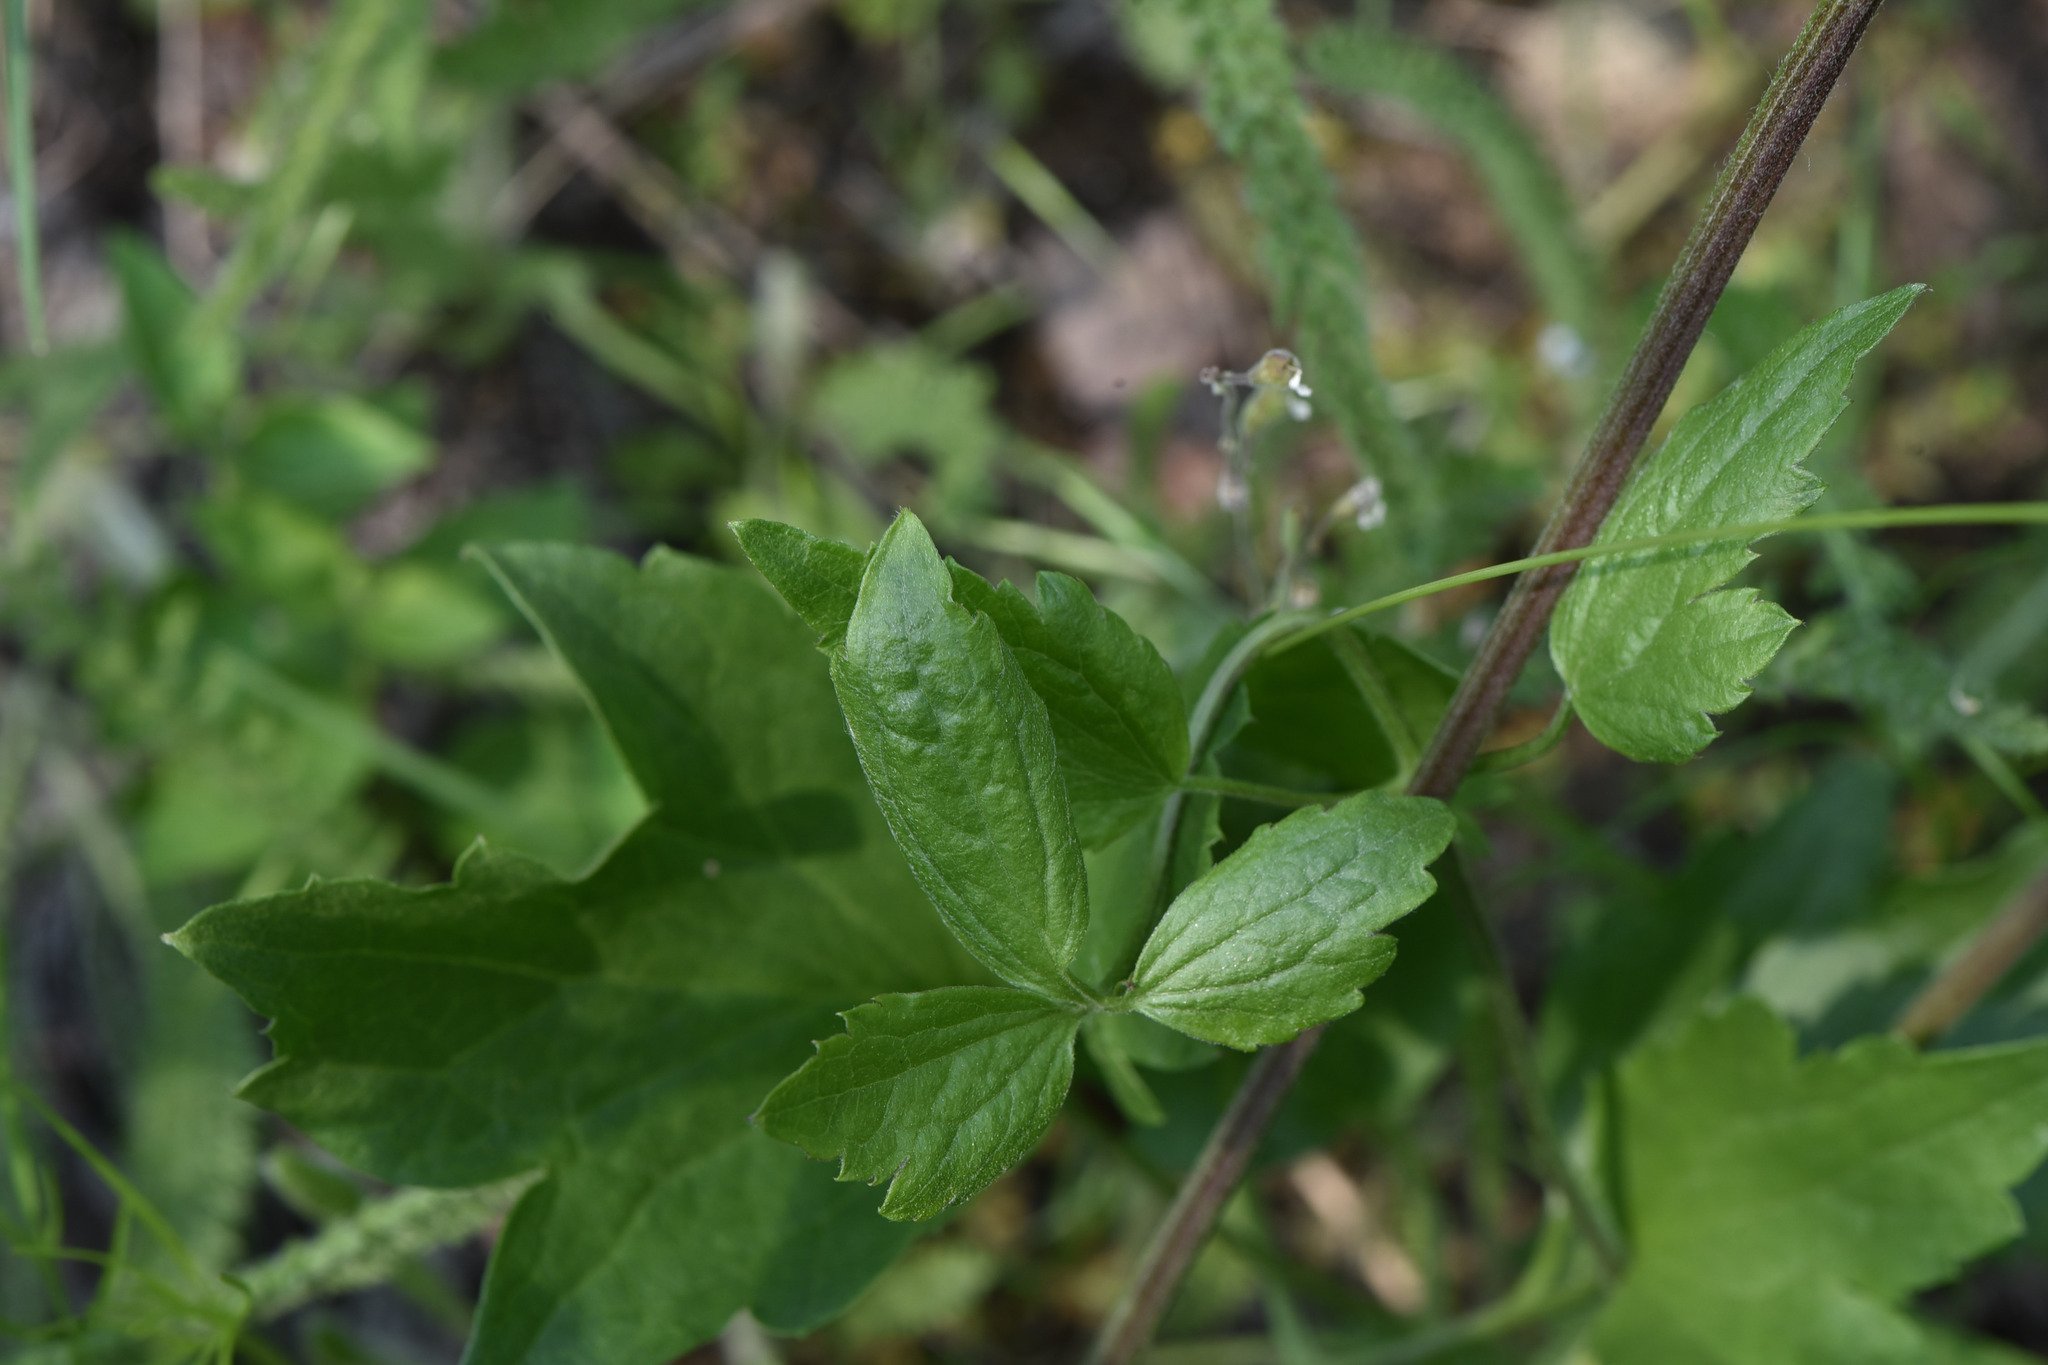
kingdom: Plantae
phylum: Tracheophyta
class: Magnoliopsida
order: Ranunculales
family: Ranunculaceae
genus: Clematis
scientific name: Clematis ligusticifolia
